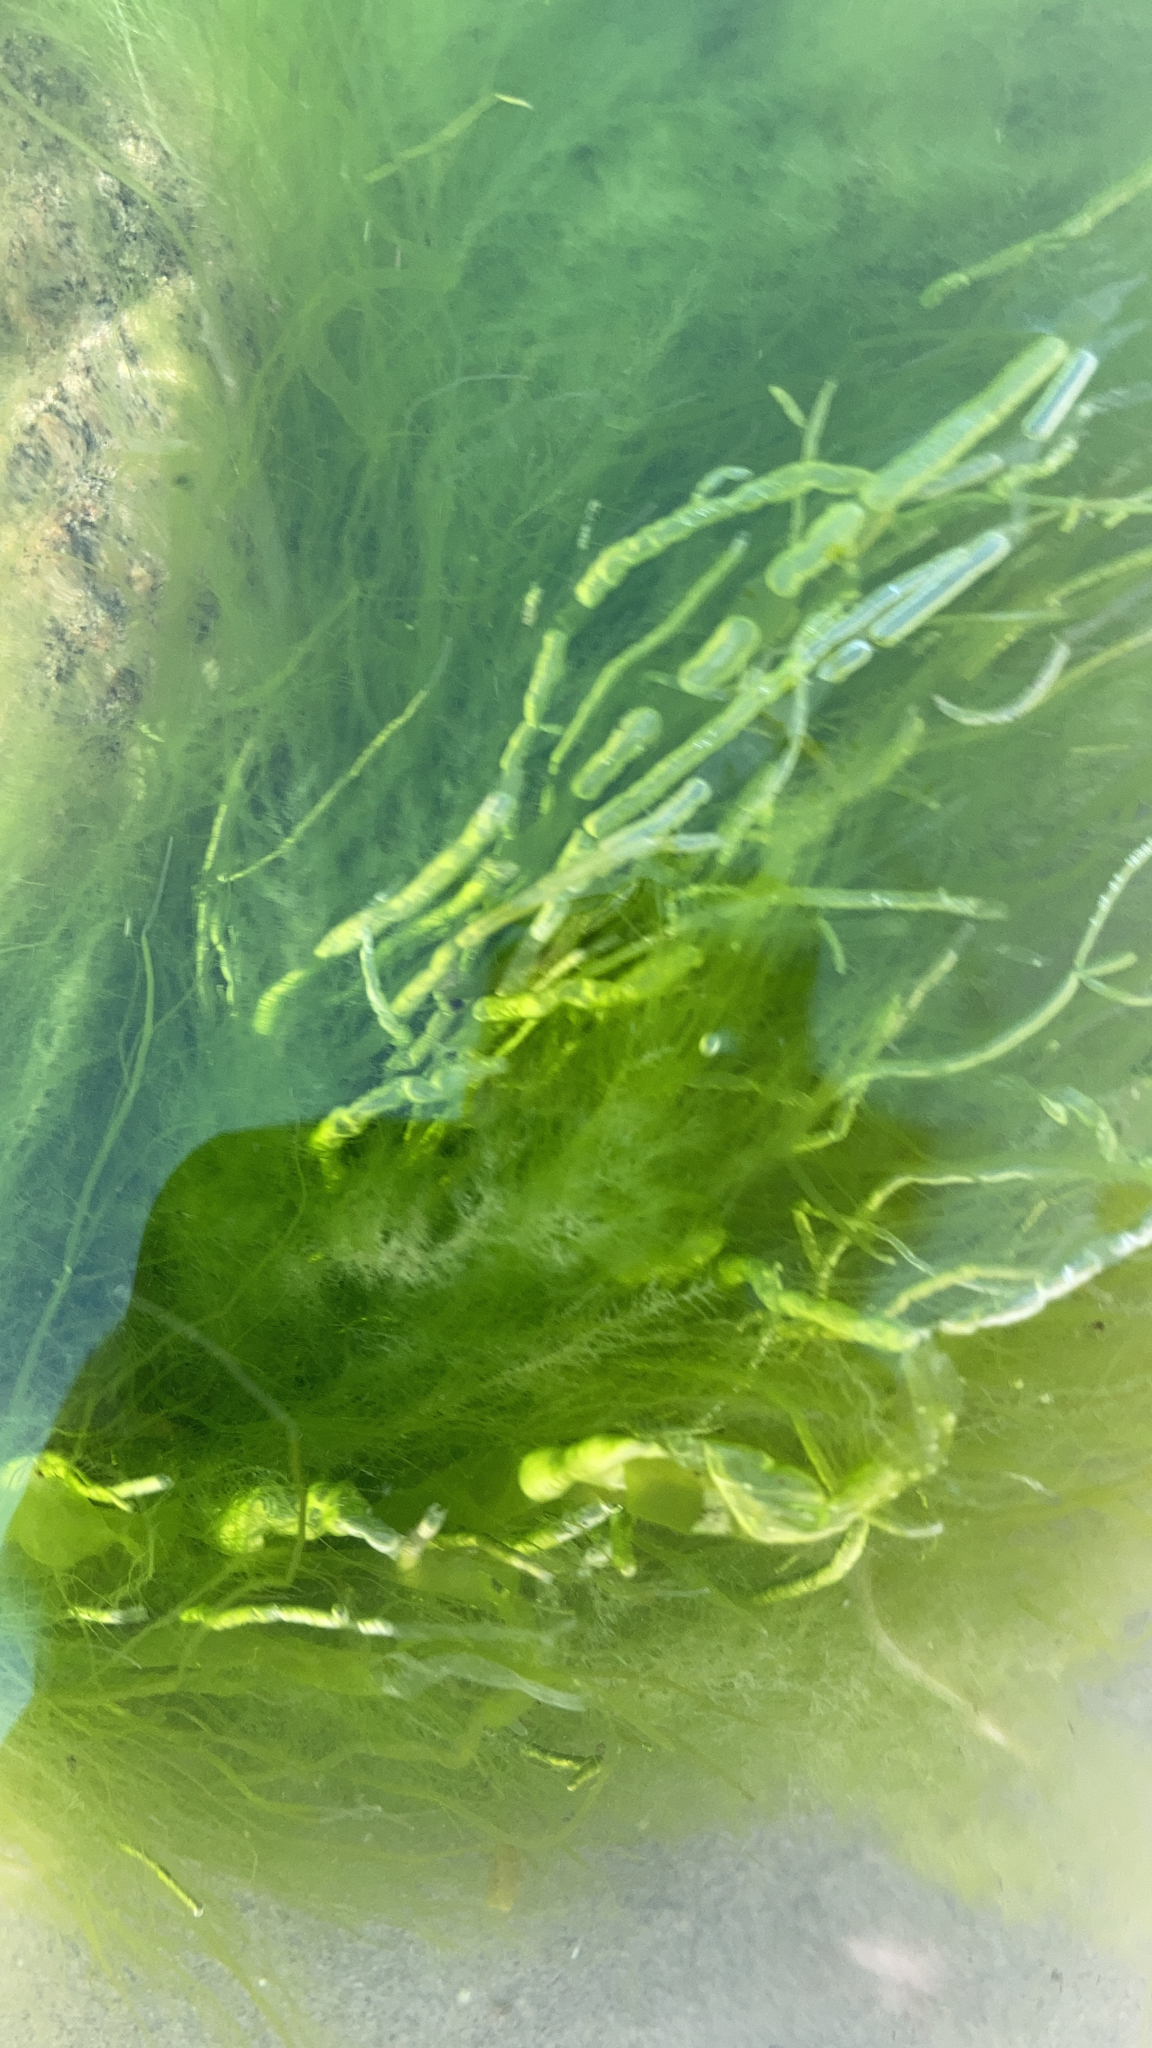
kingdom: Plantae
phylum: Chlorophyta
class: Ulvophyceae
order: Ulvales
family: Ulvaceae
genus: Ulva
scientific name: Ulva intestinalis
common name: Gut weed
